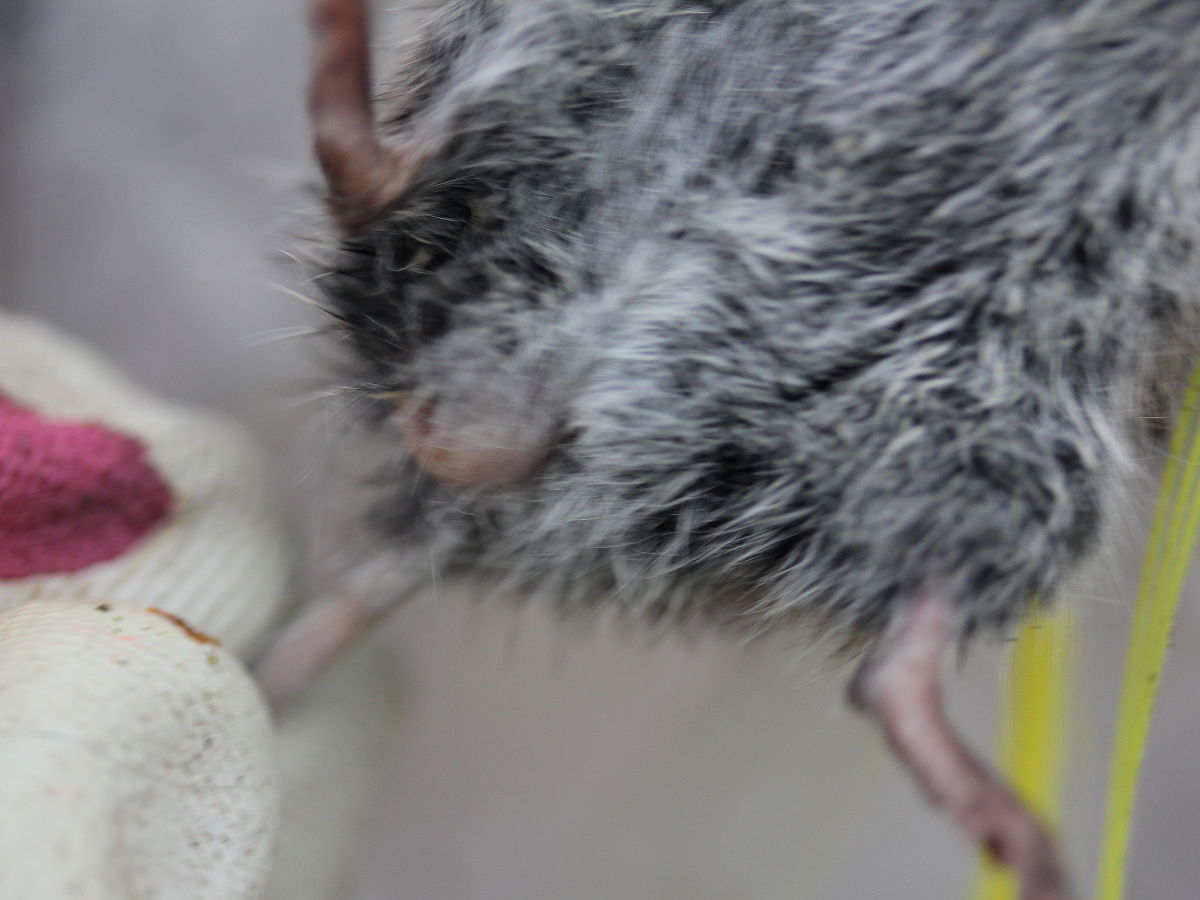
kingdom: Animalia
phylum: Chordata
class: Mammalia
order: Rodentia
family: Cricetidae
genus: Microtus
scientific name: Microtus pennsylvanicus
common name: Meadow vole
